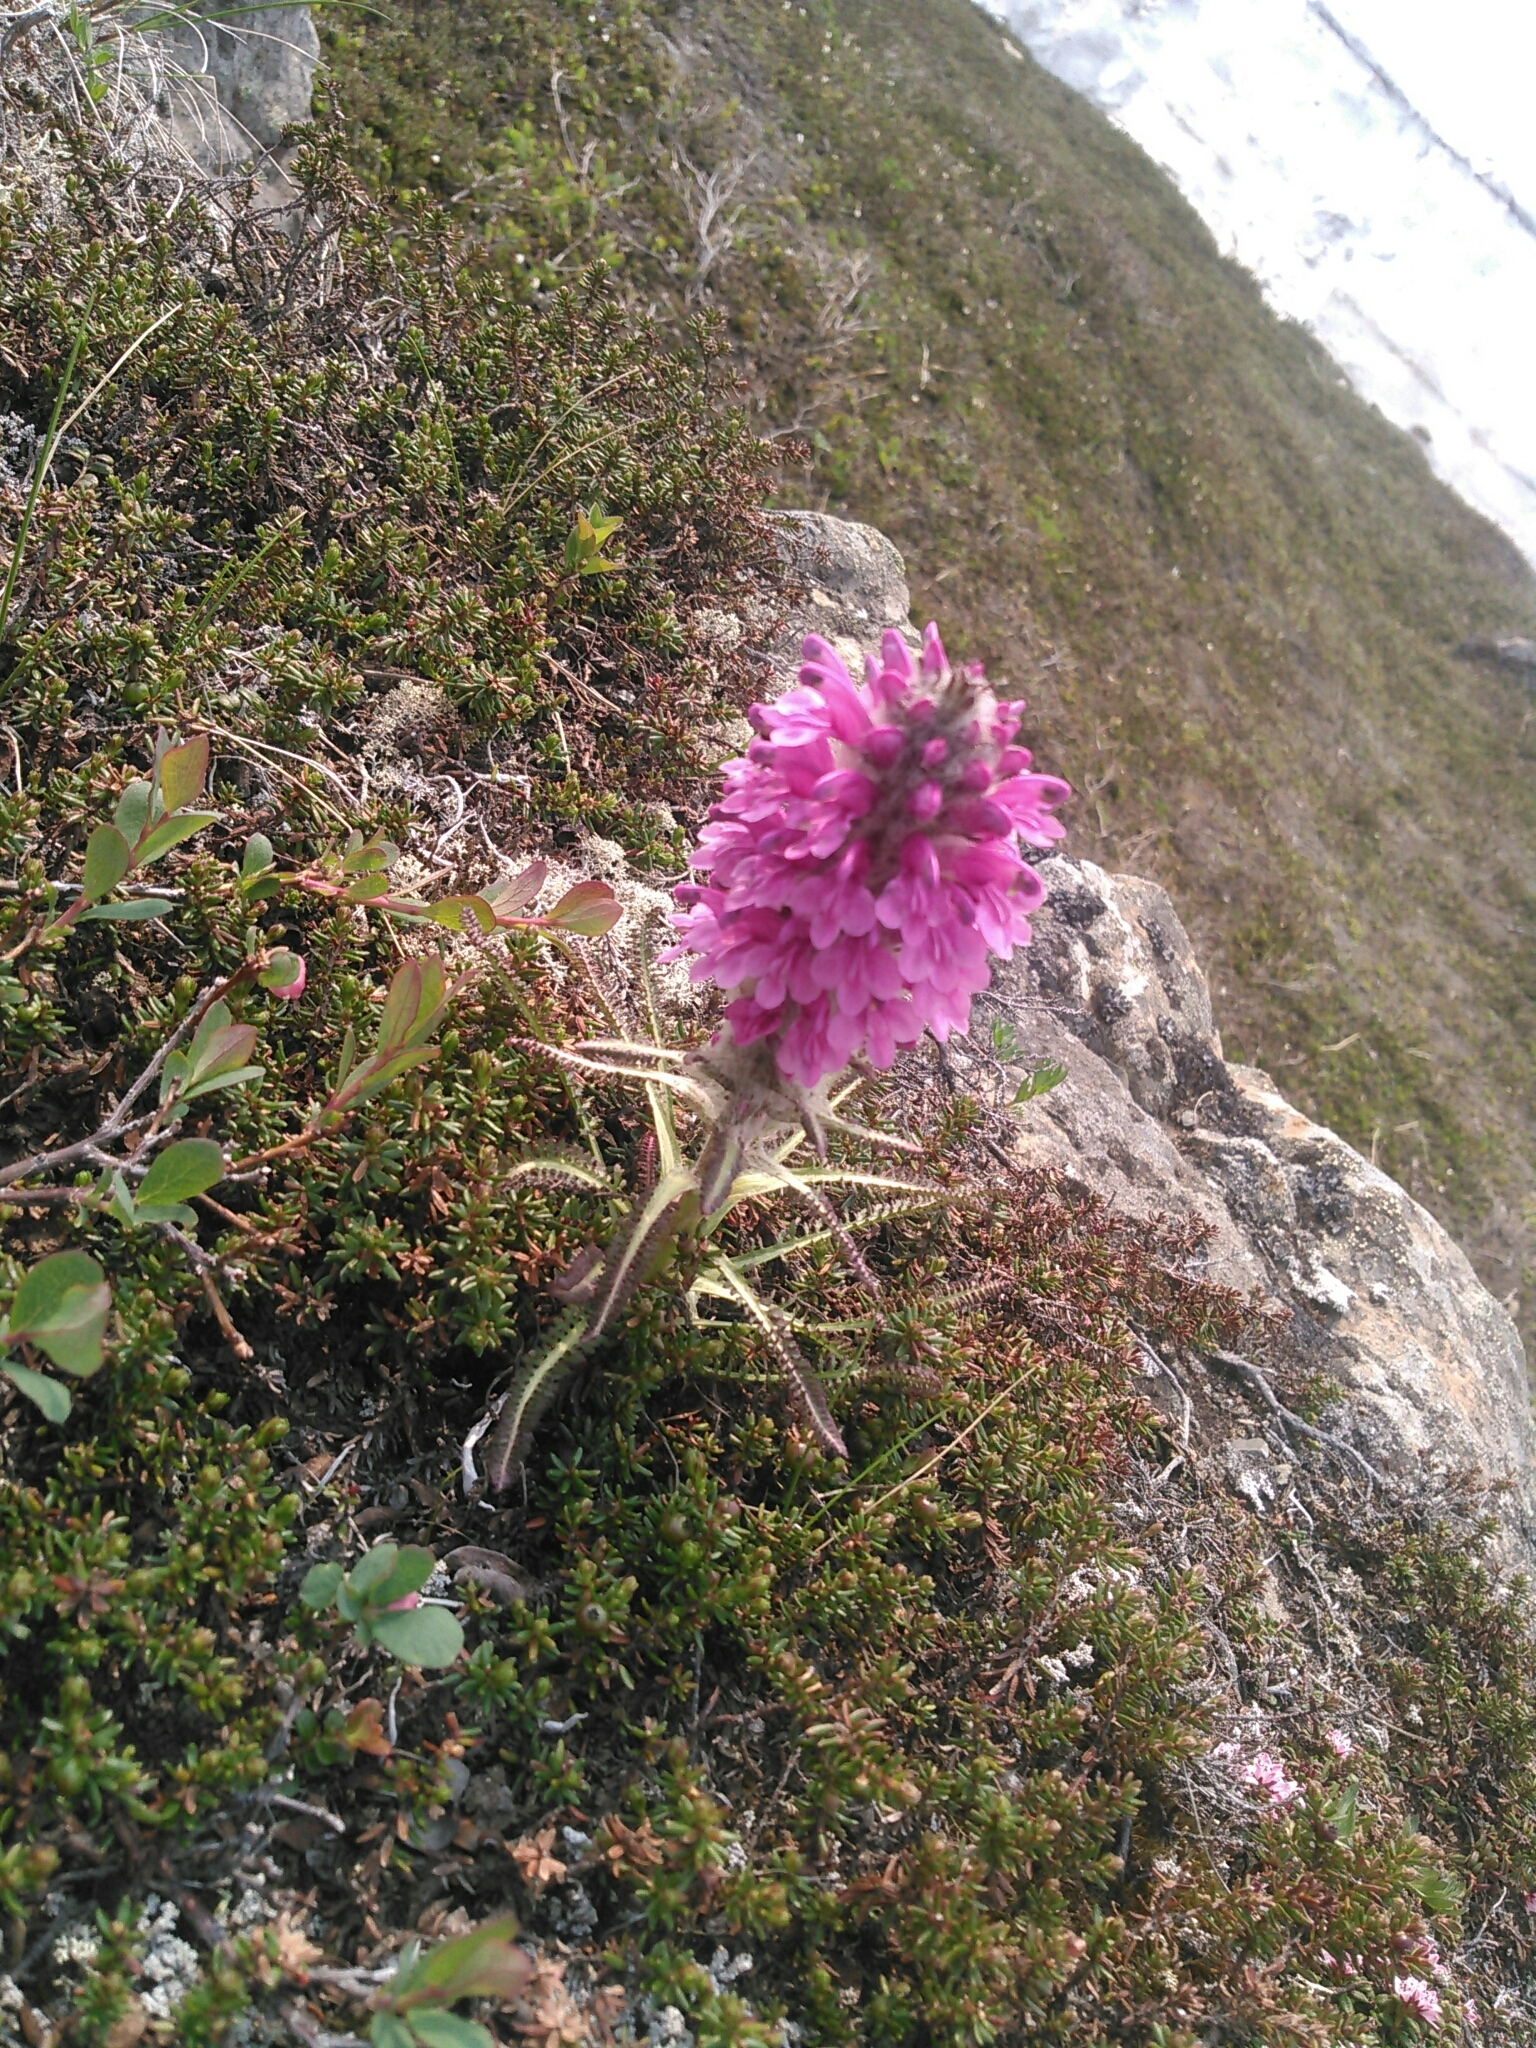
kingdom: Plantae
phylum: Tracheophyta
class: Magnoliopsida
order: Lamiales
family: Orobanchaceae
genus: Pedicularis
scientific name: Pedicularis lanata
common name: Woolly lousewort
